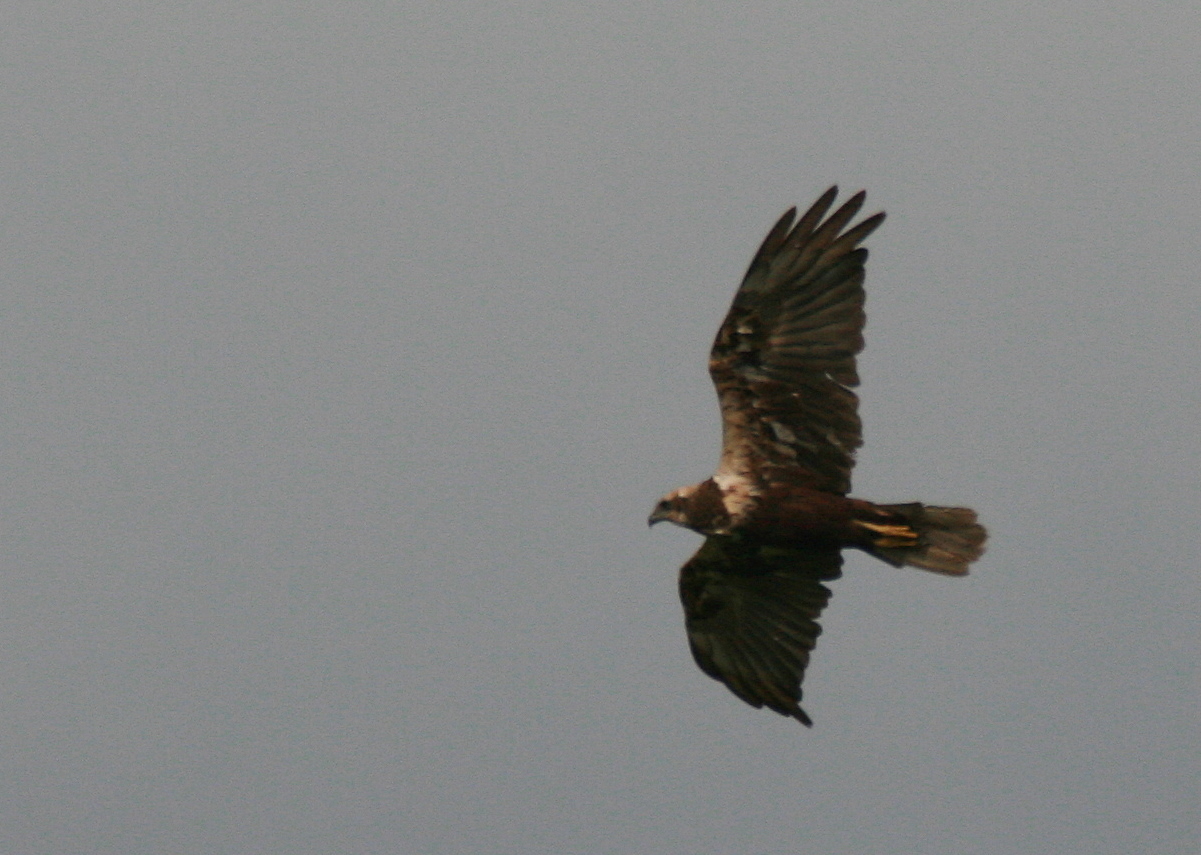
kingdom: Animalia
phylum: Chordata
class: Aves
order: Accipitriformes
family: Accipitridae
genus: Circus
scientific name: Circus aeruginosus
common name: Western marsh harrier
